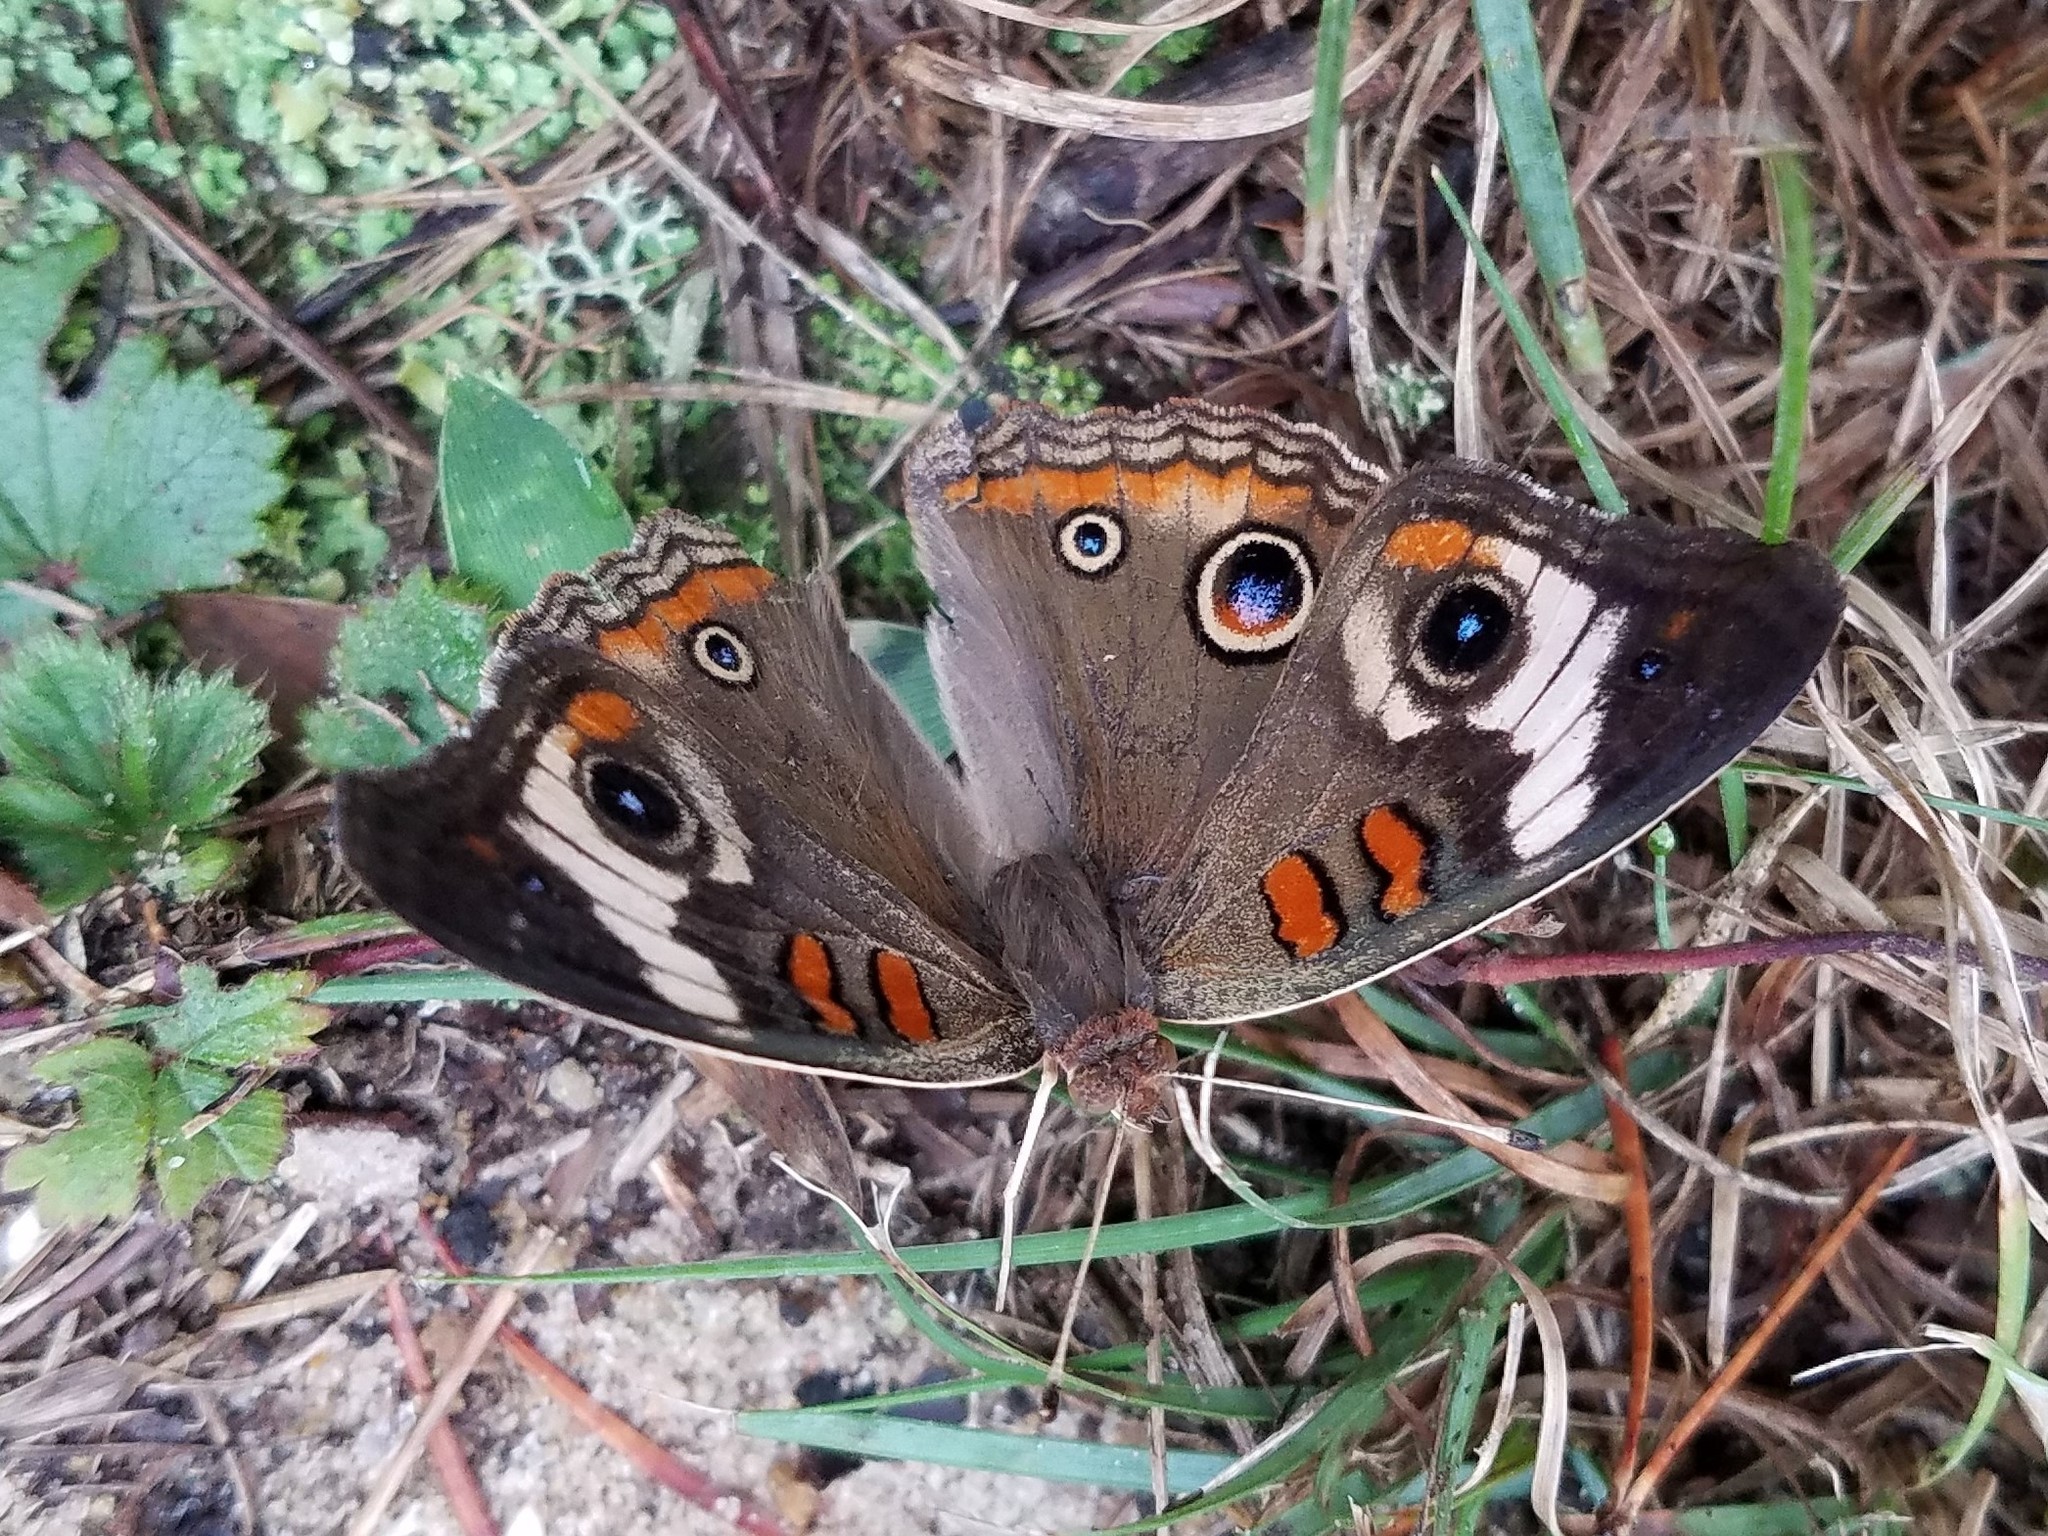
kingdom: Animalia
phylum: Arthropoda
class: Insecta
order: Lepidoptera
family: Nymphalidae
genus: Junonia
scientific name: Junonia coenia
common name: Common buckeye
